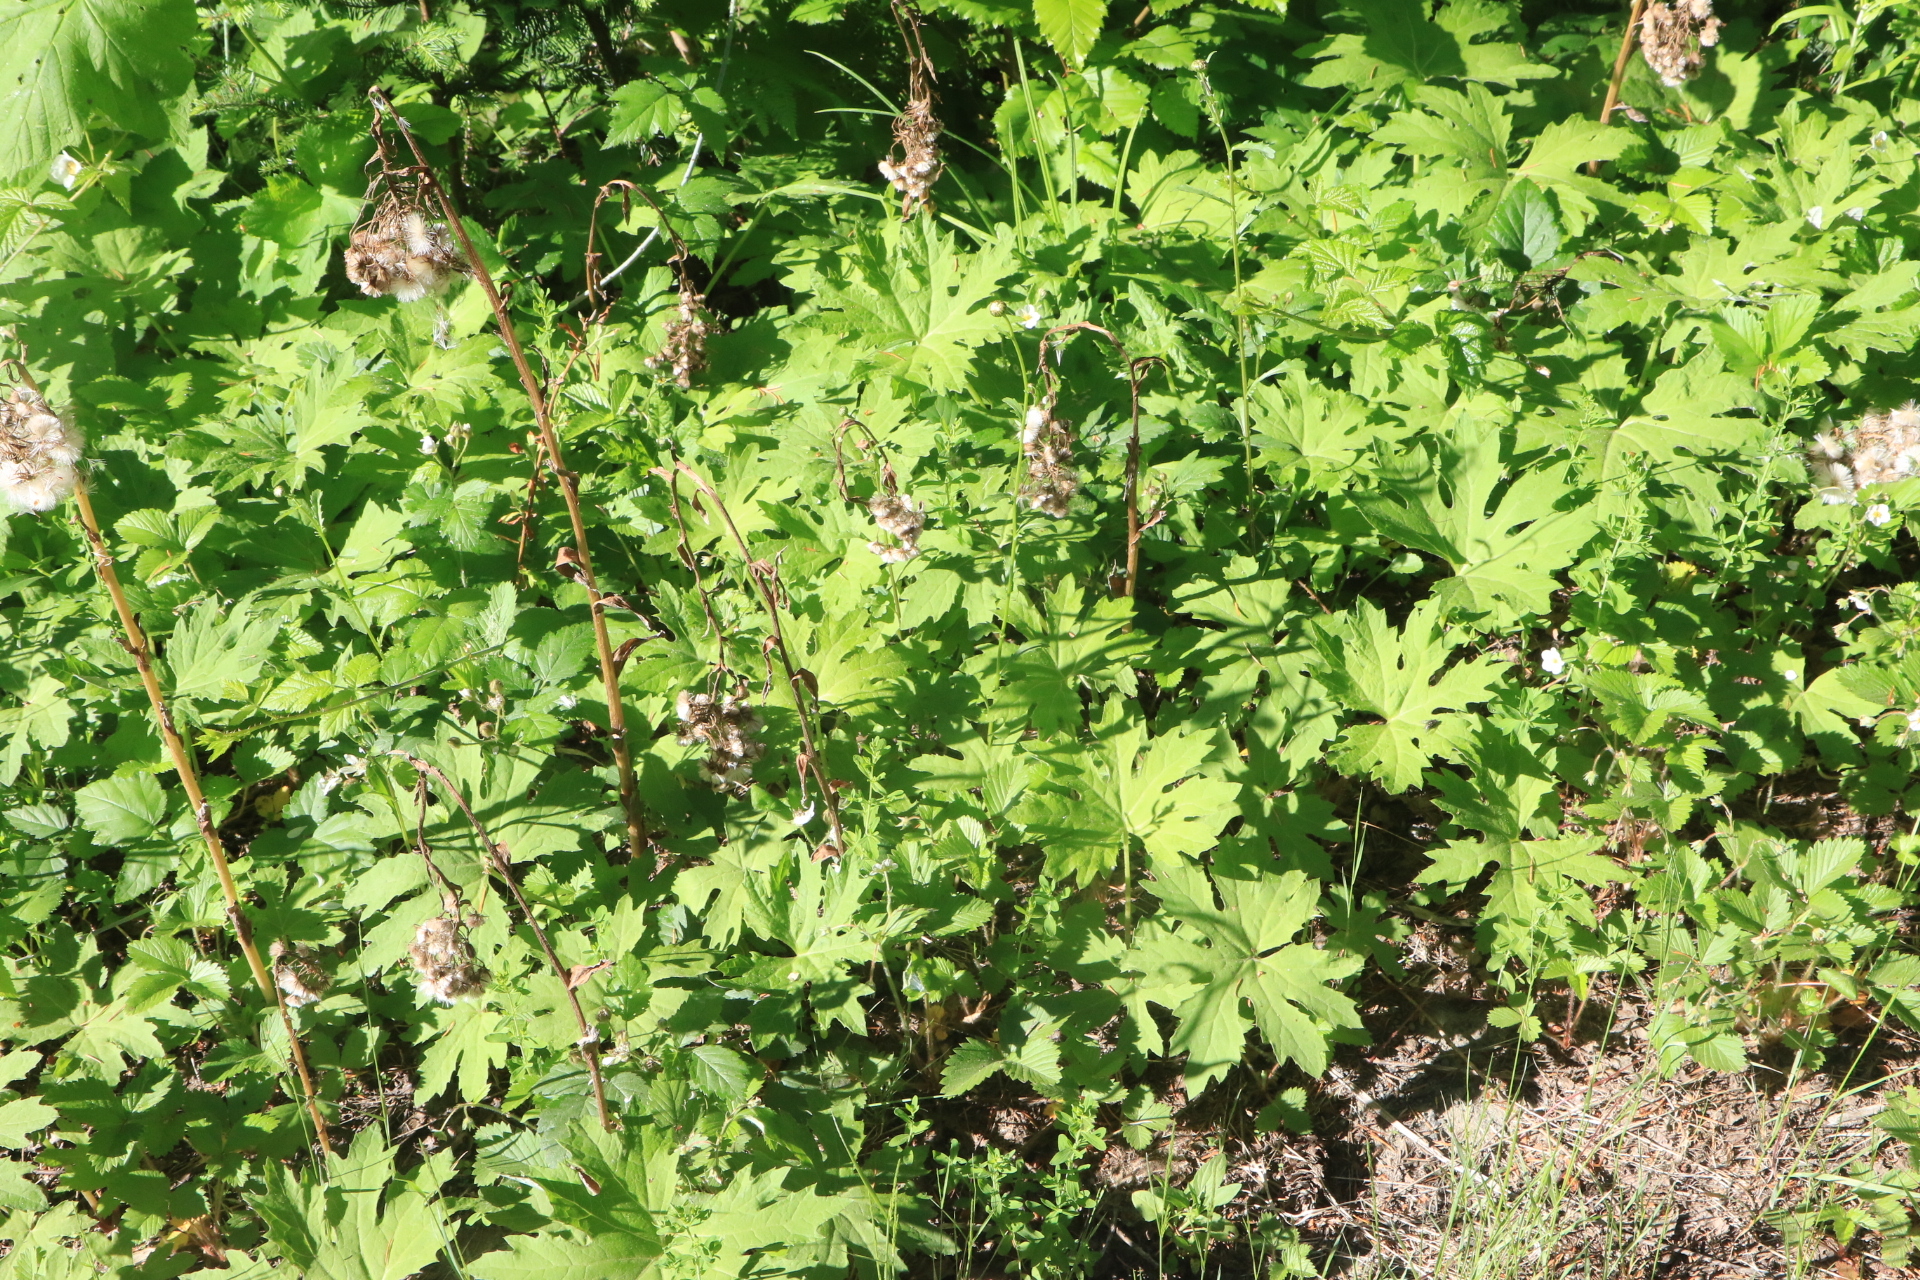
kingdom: Plantae
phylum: Tracheophyta
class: Magnoliopsida
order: Asterales
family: Asteraceae
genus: Petasites
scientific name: Petasites frigidus
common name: Arctic butterbur
